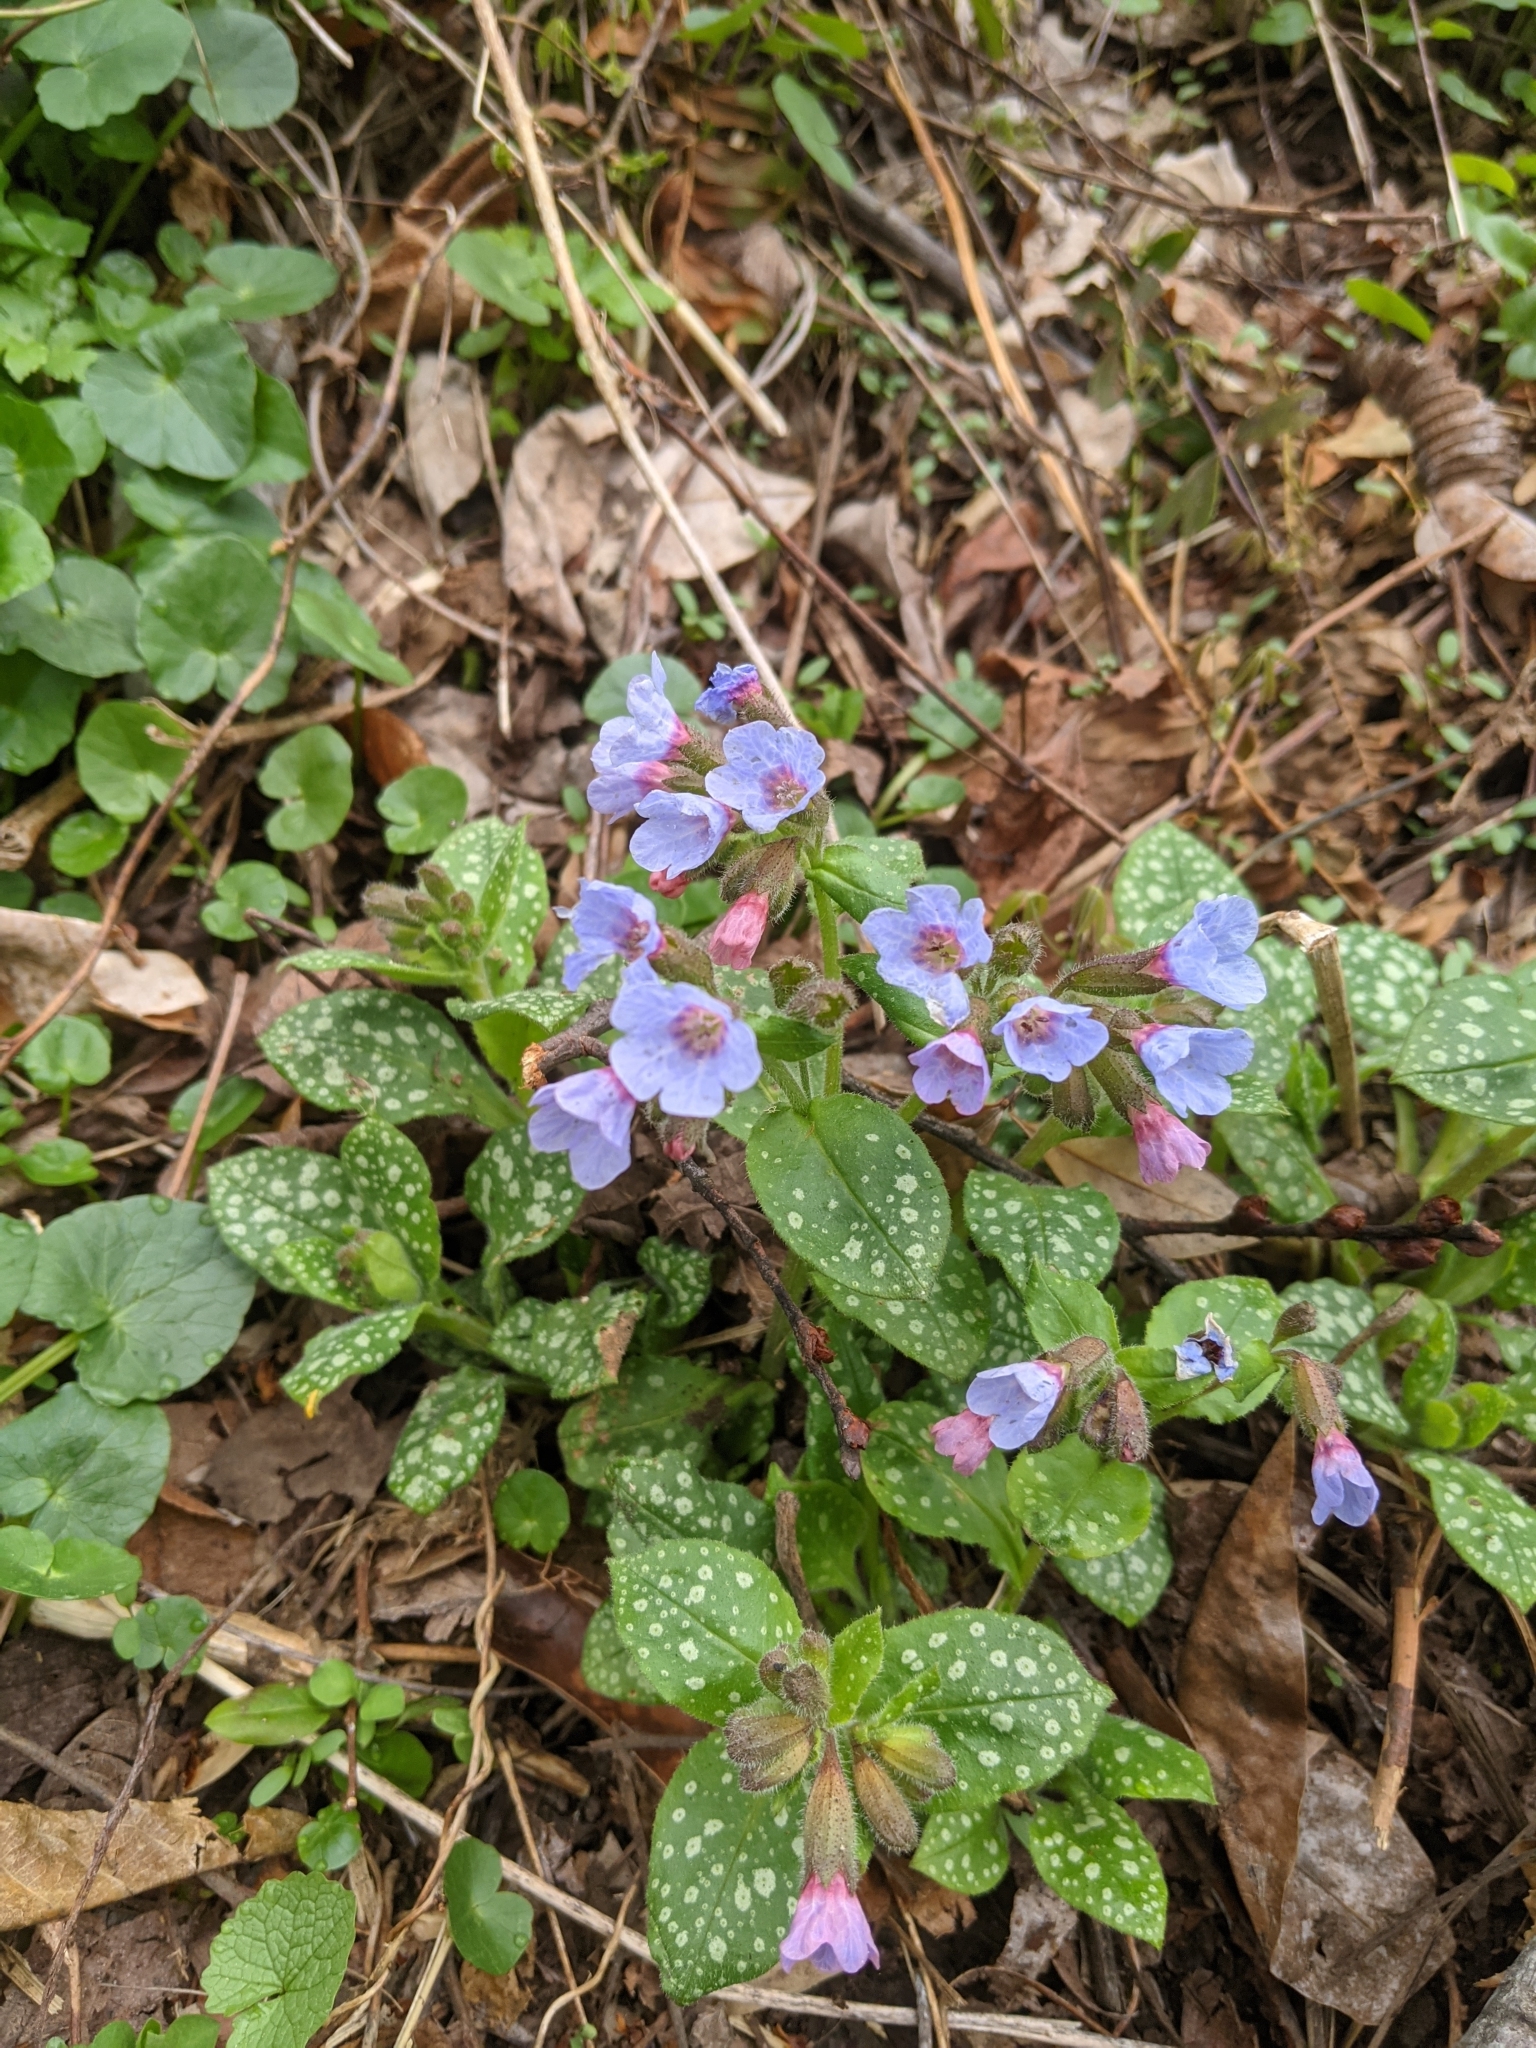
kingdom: Plantae
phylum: Tracheophyta
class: Magnoliopsida
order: Boraginales
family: Boraginaceae
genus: Pulmonaria
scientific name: Pulmonaria officinalis
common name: Lungwort
